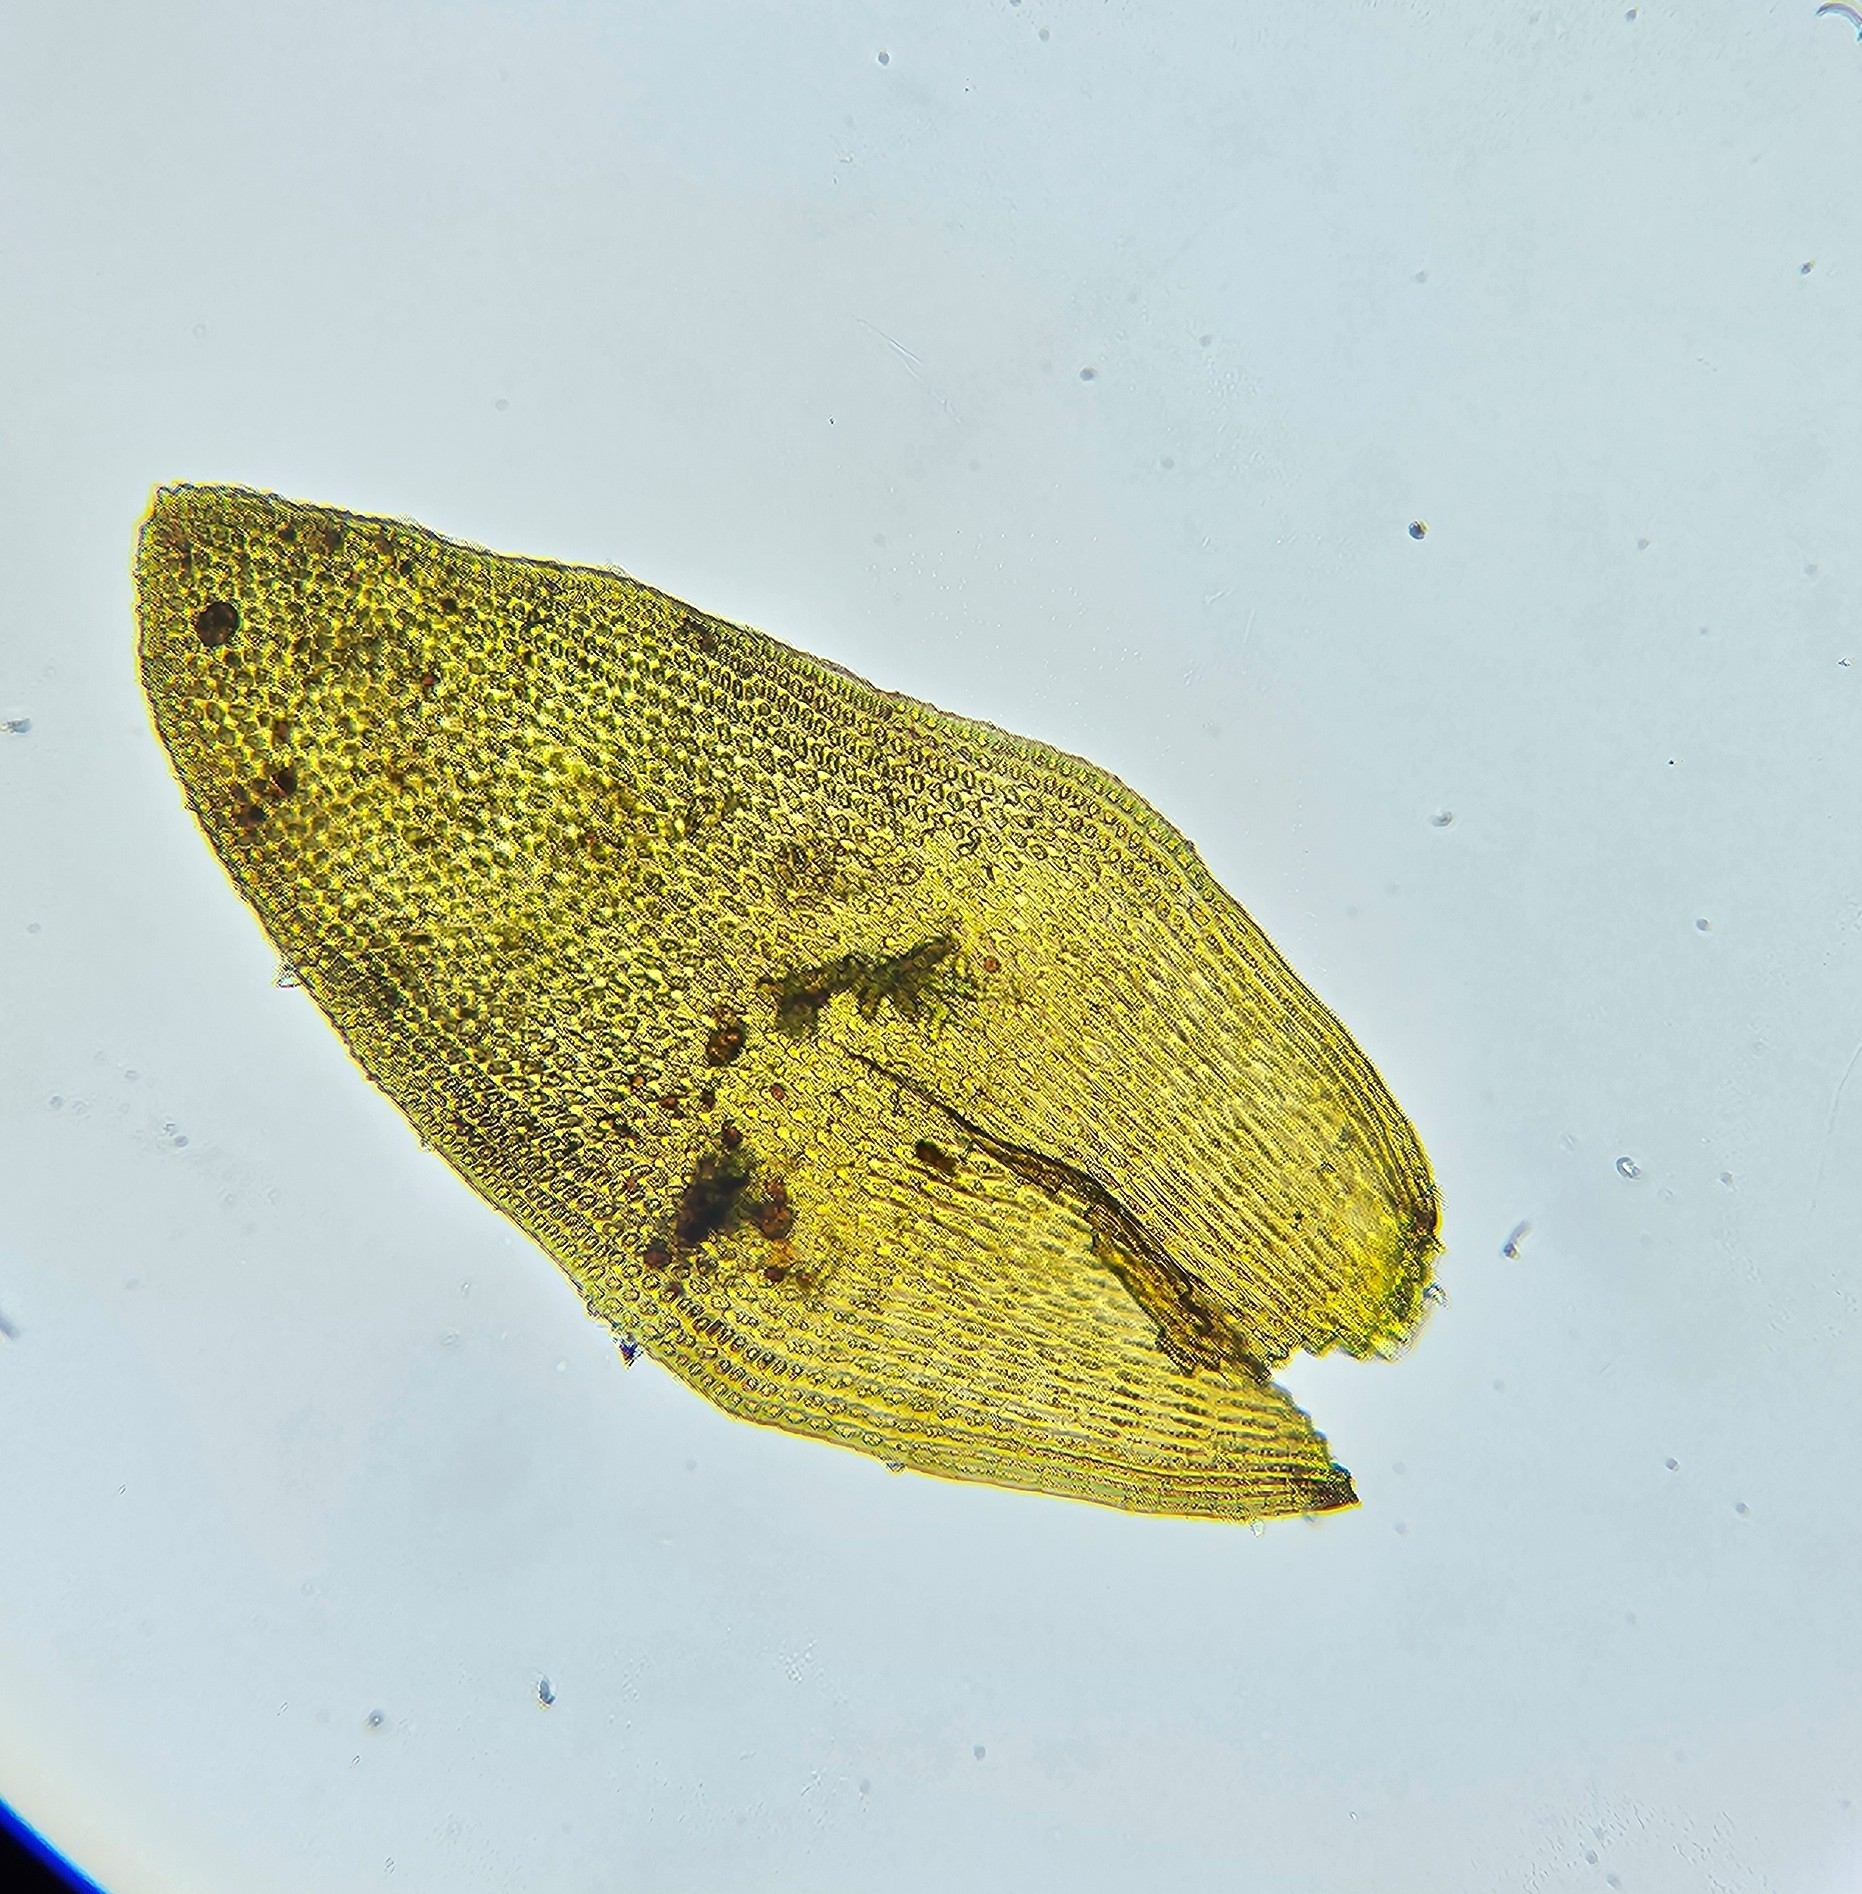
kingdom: Plantae
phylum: Bryophyta
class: Andreaeopsida
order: Andreaeales
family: Andreaeaceae
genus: Andreaea
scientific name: Andreaea rupestris
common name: Black rock moss
